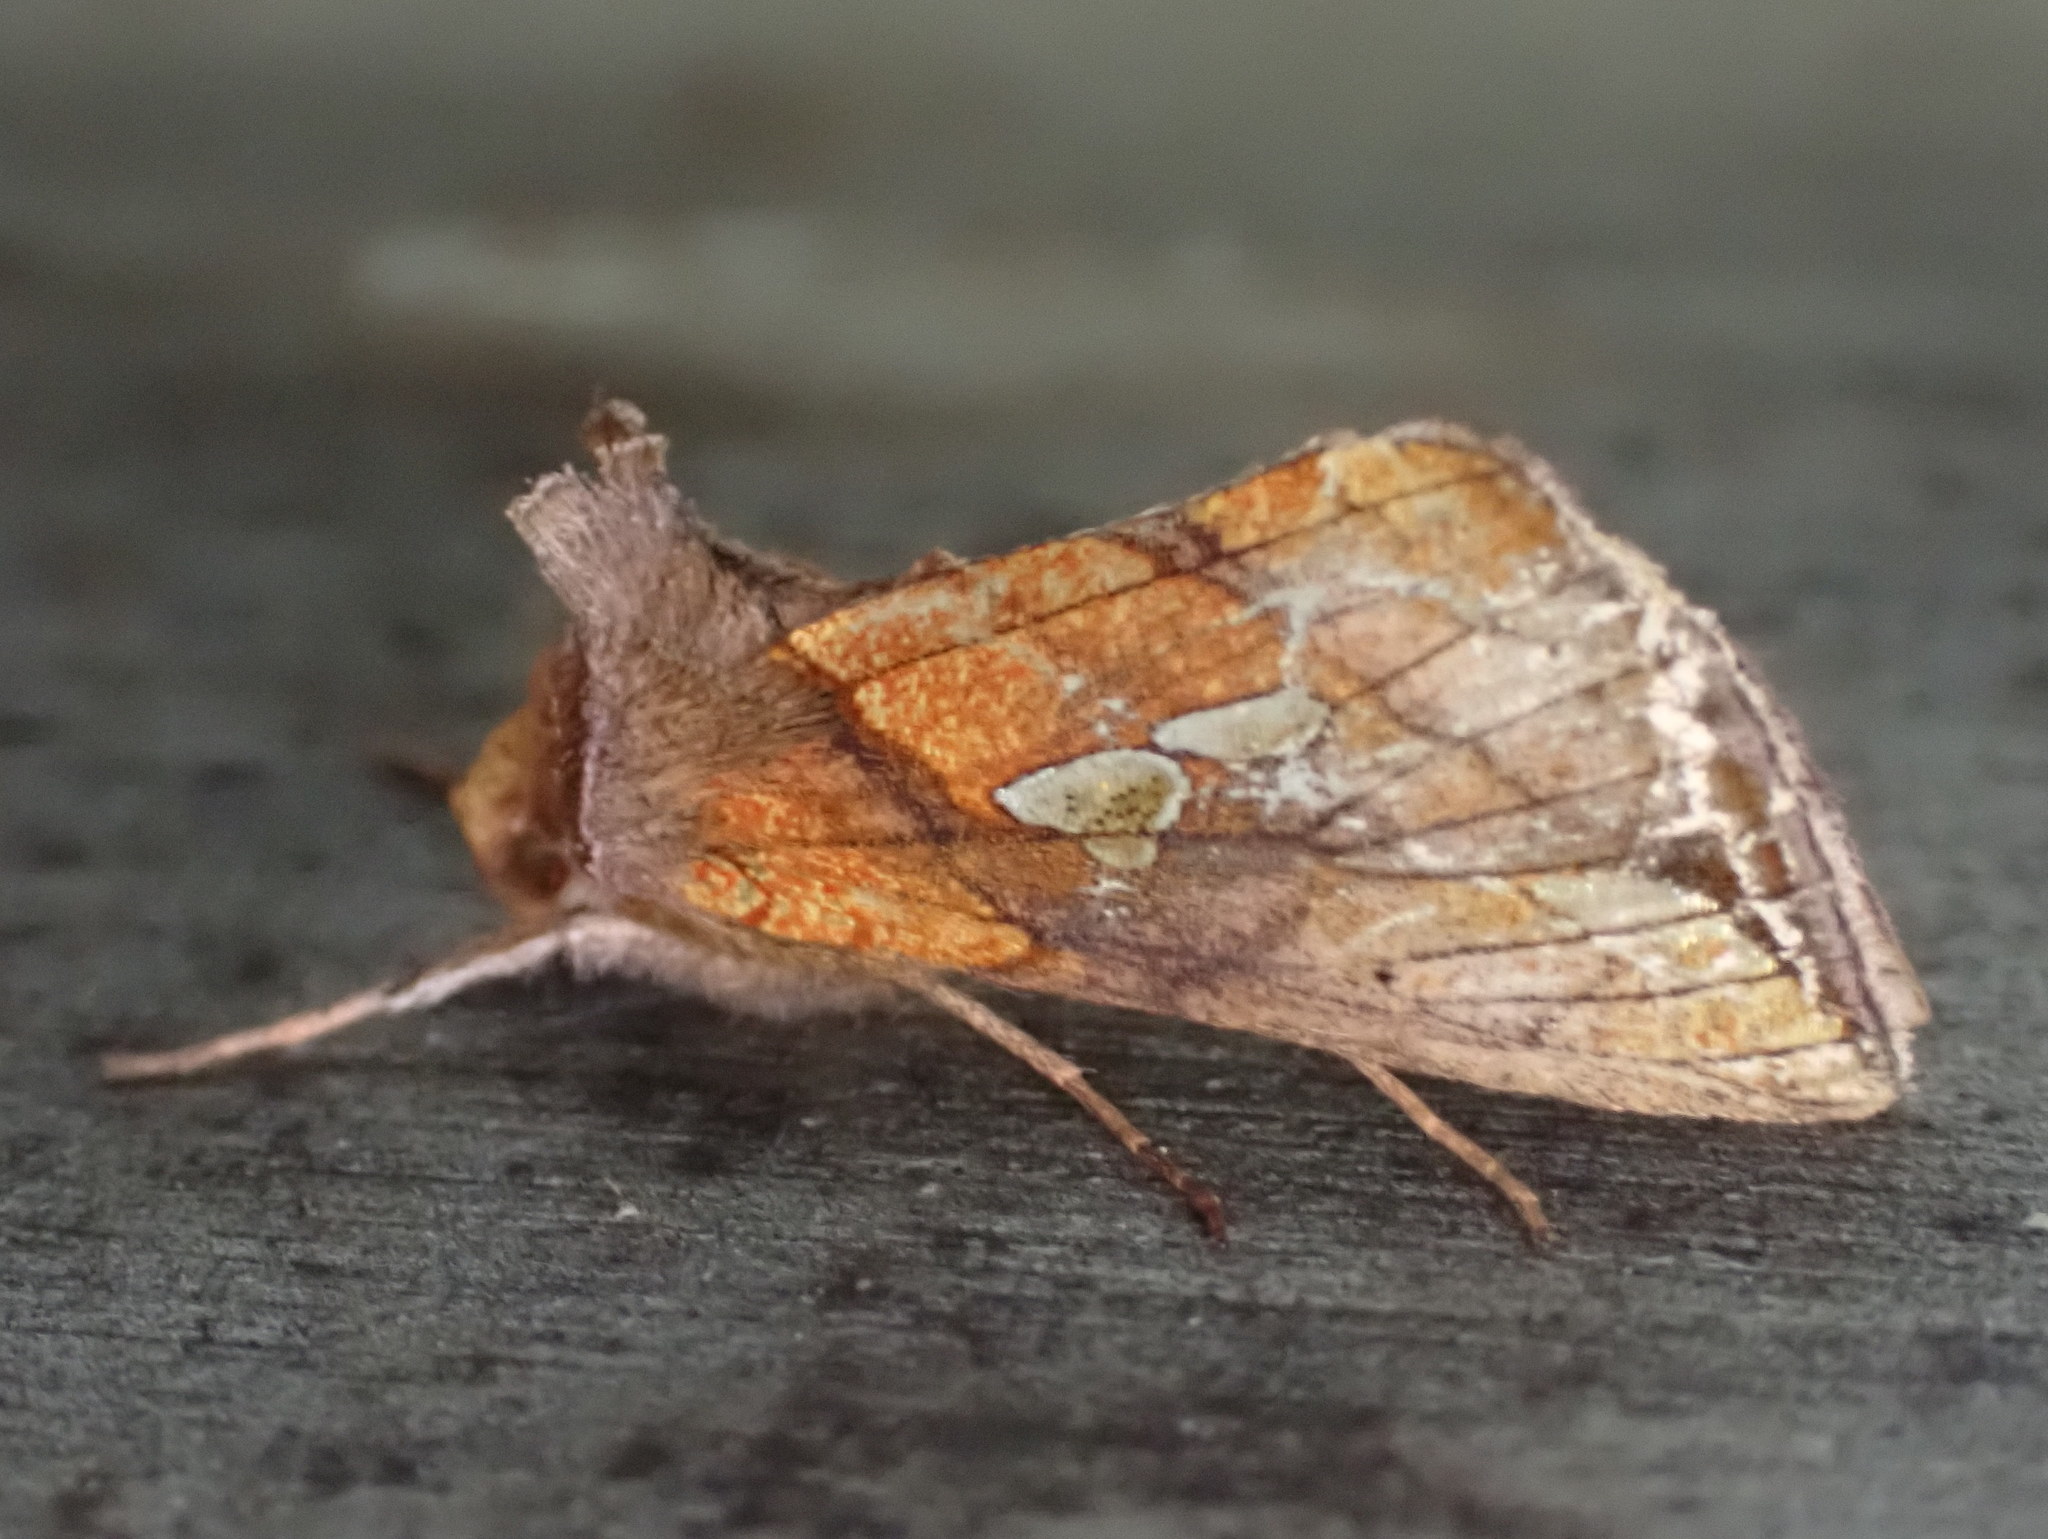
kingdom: Animalia
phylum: Arthropoda
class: Insecta
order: Lepidoptera
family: Noctuidae
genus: Plusia
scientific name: Plusia putnami
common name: Lempke's gold spot
